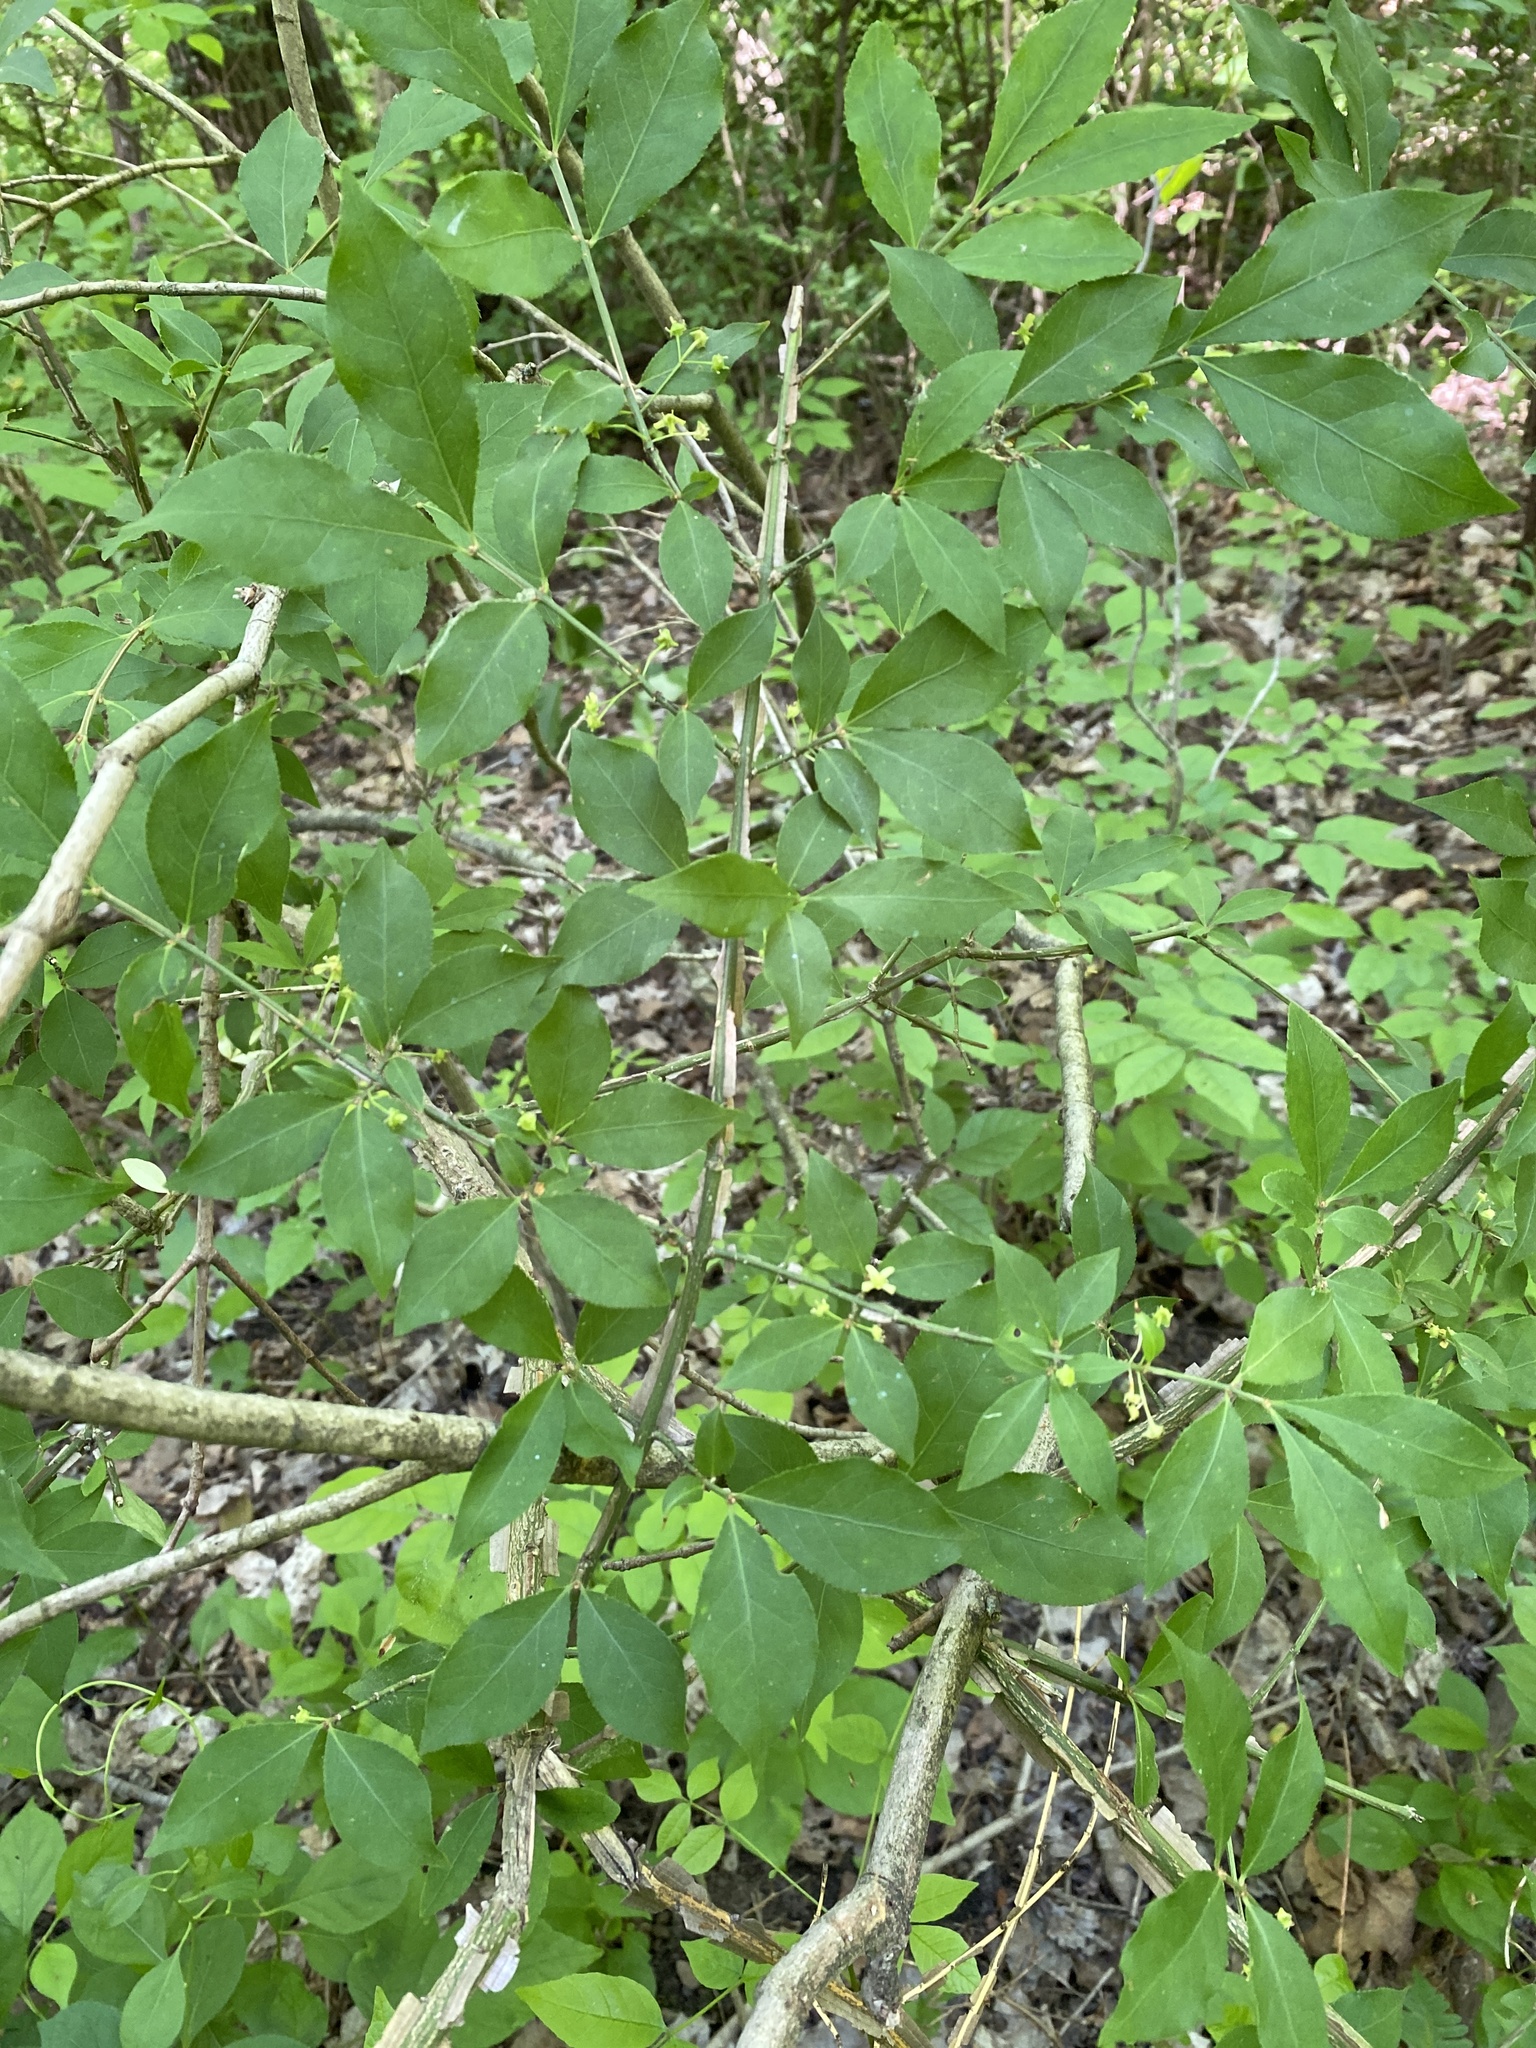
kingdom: Plantae
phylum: Tracheophyta
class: Magnoliopsida
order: Celastrales
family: Celastraceae
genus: Euonymus
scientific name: Euonymus alatus
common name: Winged euonymus
